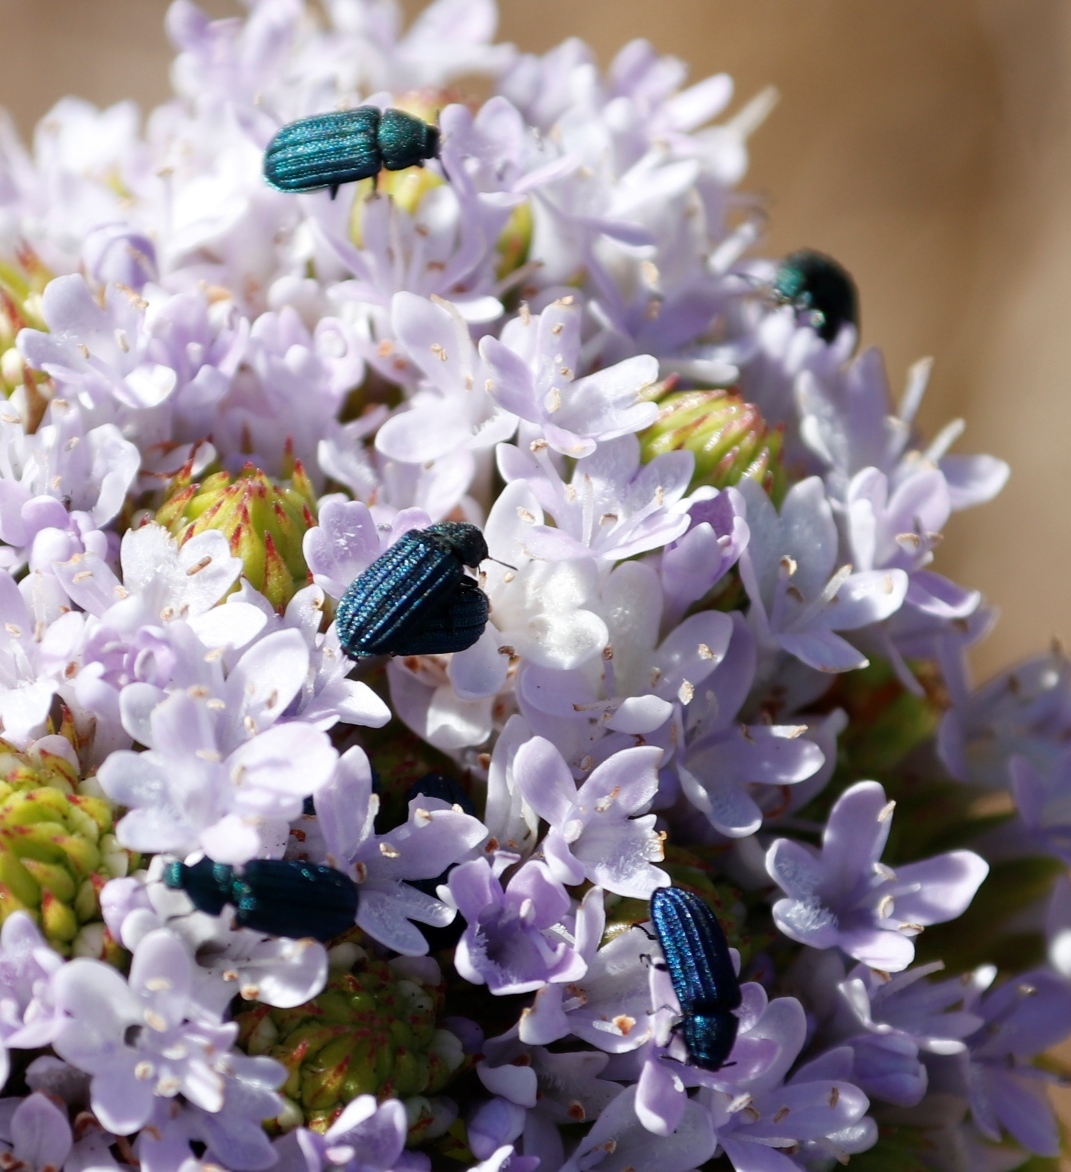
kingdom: Plantae
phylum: Tracheophyta
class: Magnoliopsida
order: Lamiales
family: Scrophulariaceae
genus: Pseudoselago
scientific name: Pseudoselago serrata
